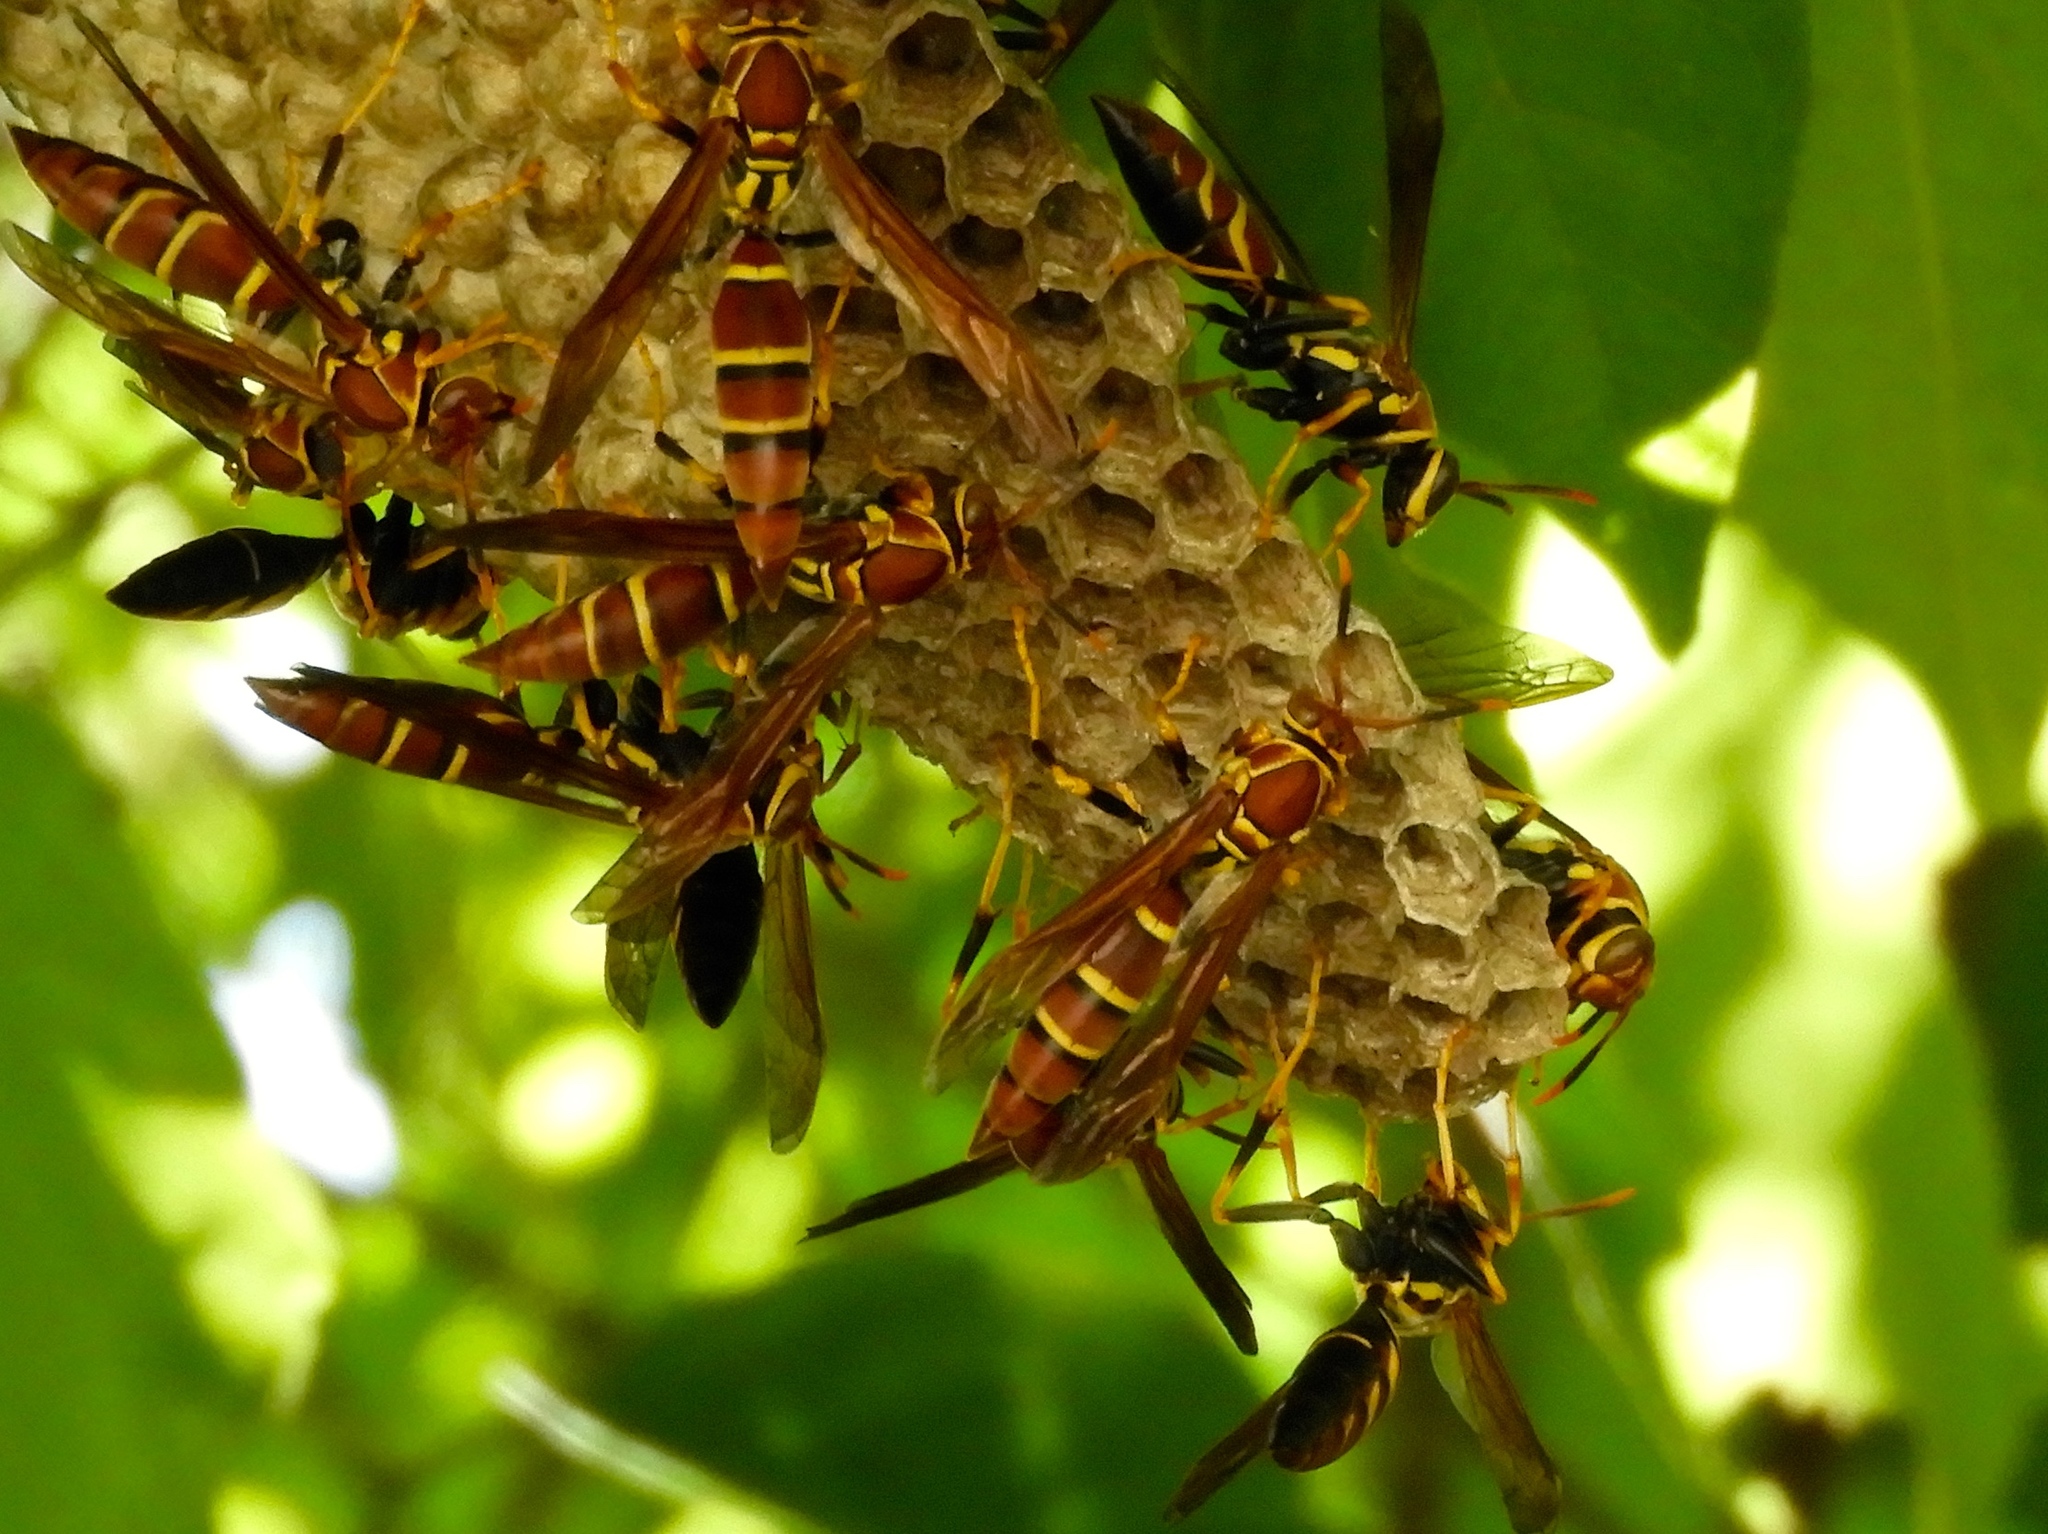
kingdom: Animalia
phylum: Arthropoda
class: Insecta
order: Hymenoptera
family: Eumenidae
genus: Polistes
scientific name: Polistes instabilis
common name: Unstable paper wasp
